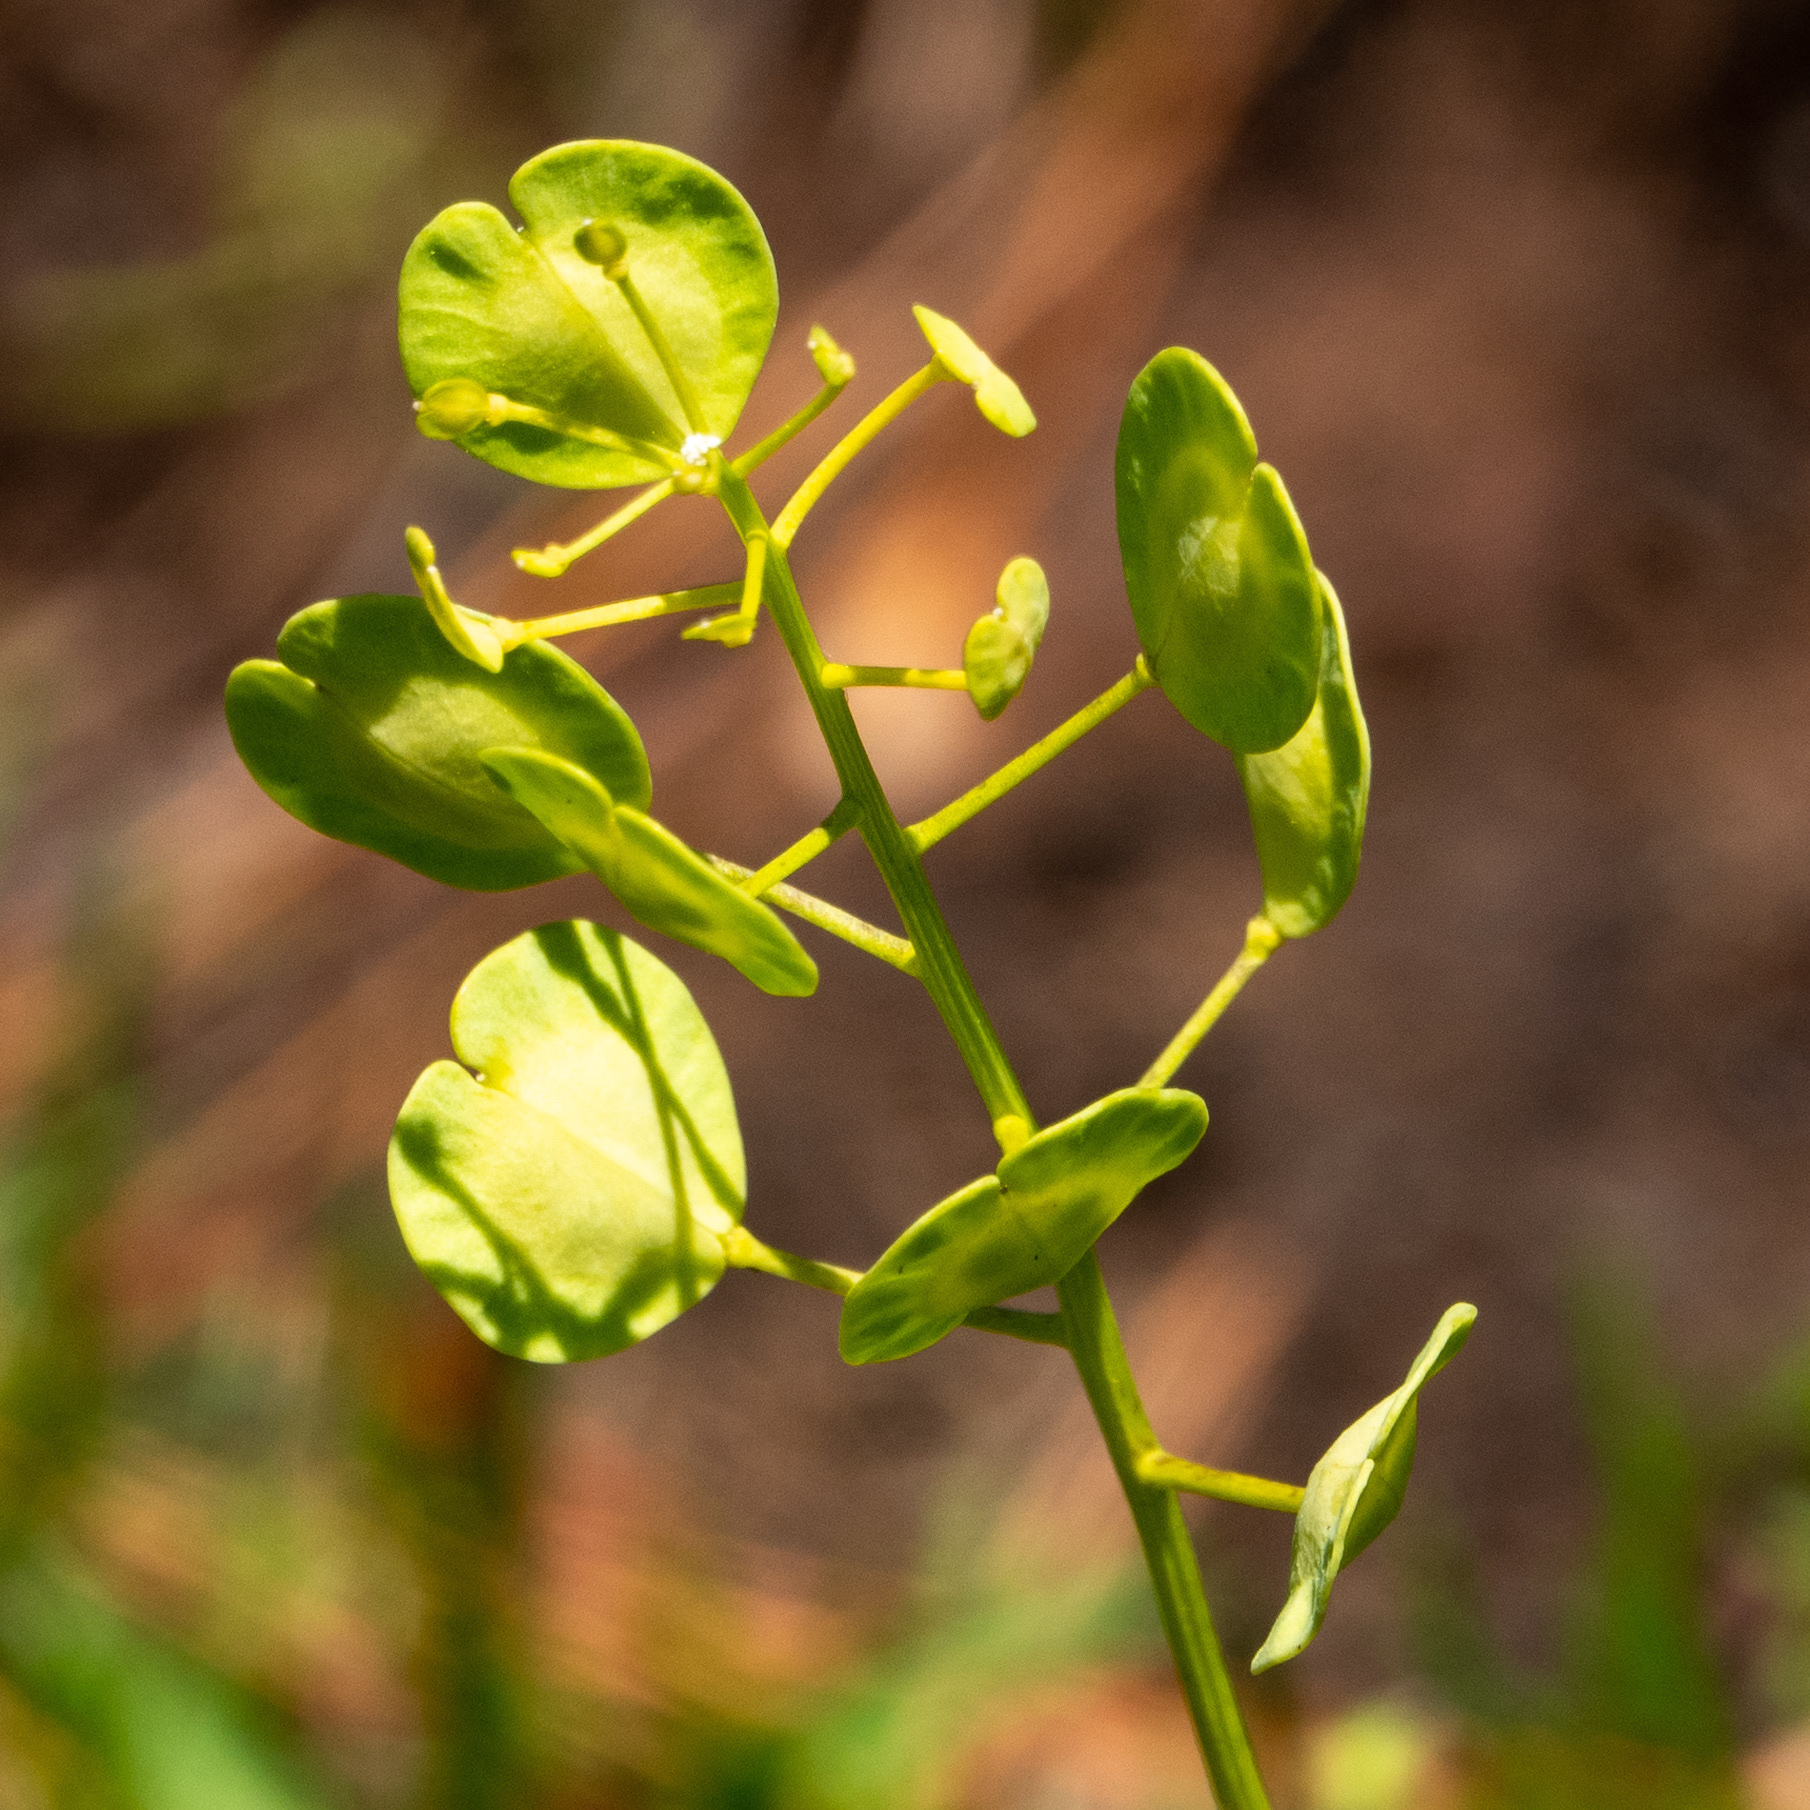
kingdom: Plantae
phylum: Tracheophyta
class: Magnoliopsida
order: Brassicales
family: Brassicaceae
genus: Thlaspi
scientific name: Thlaspi arvense
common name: Field pennycress
